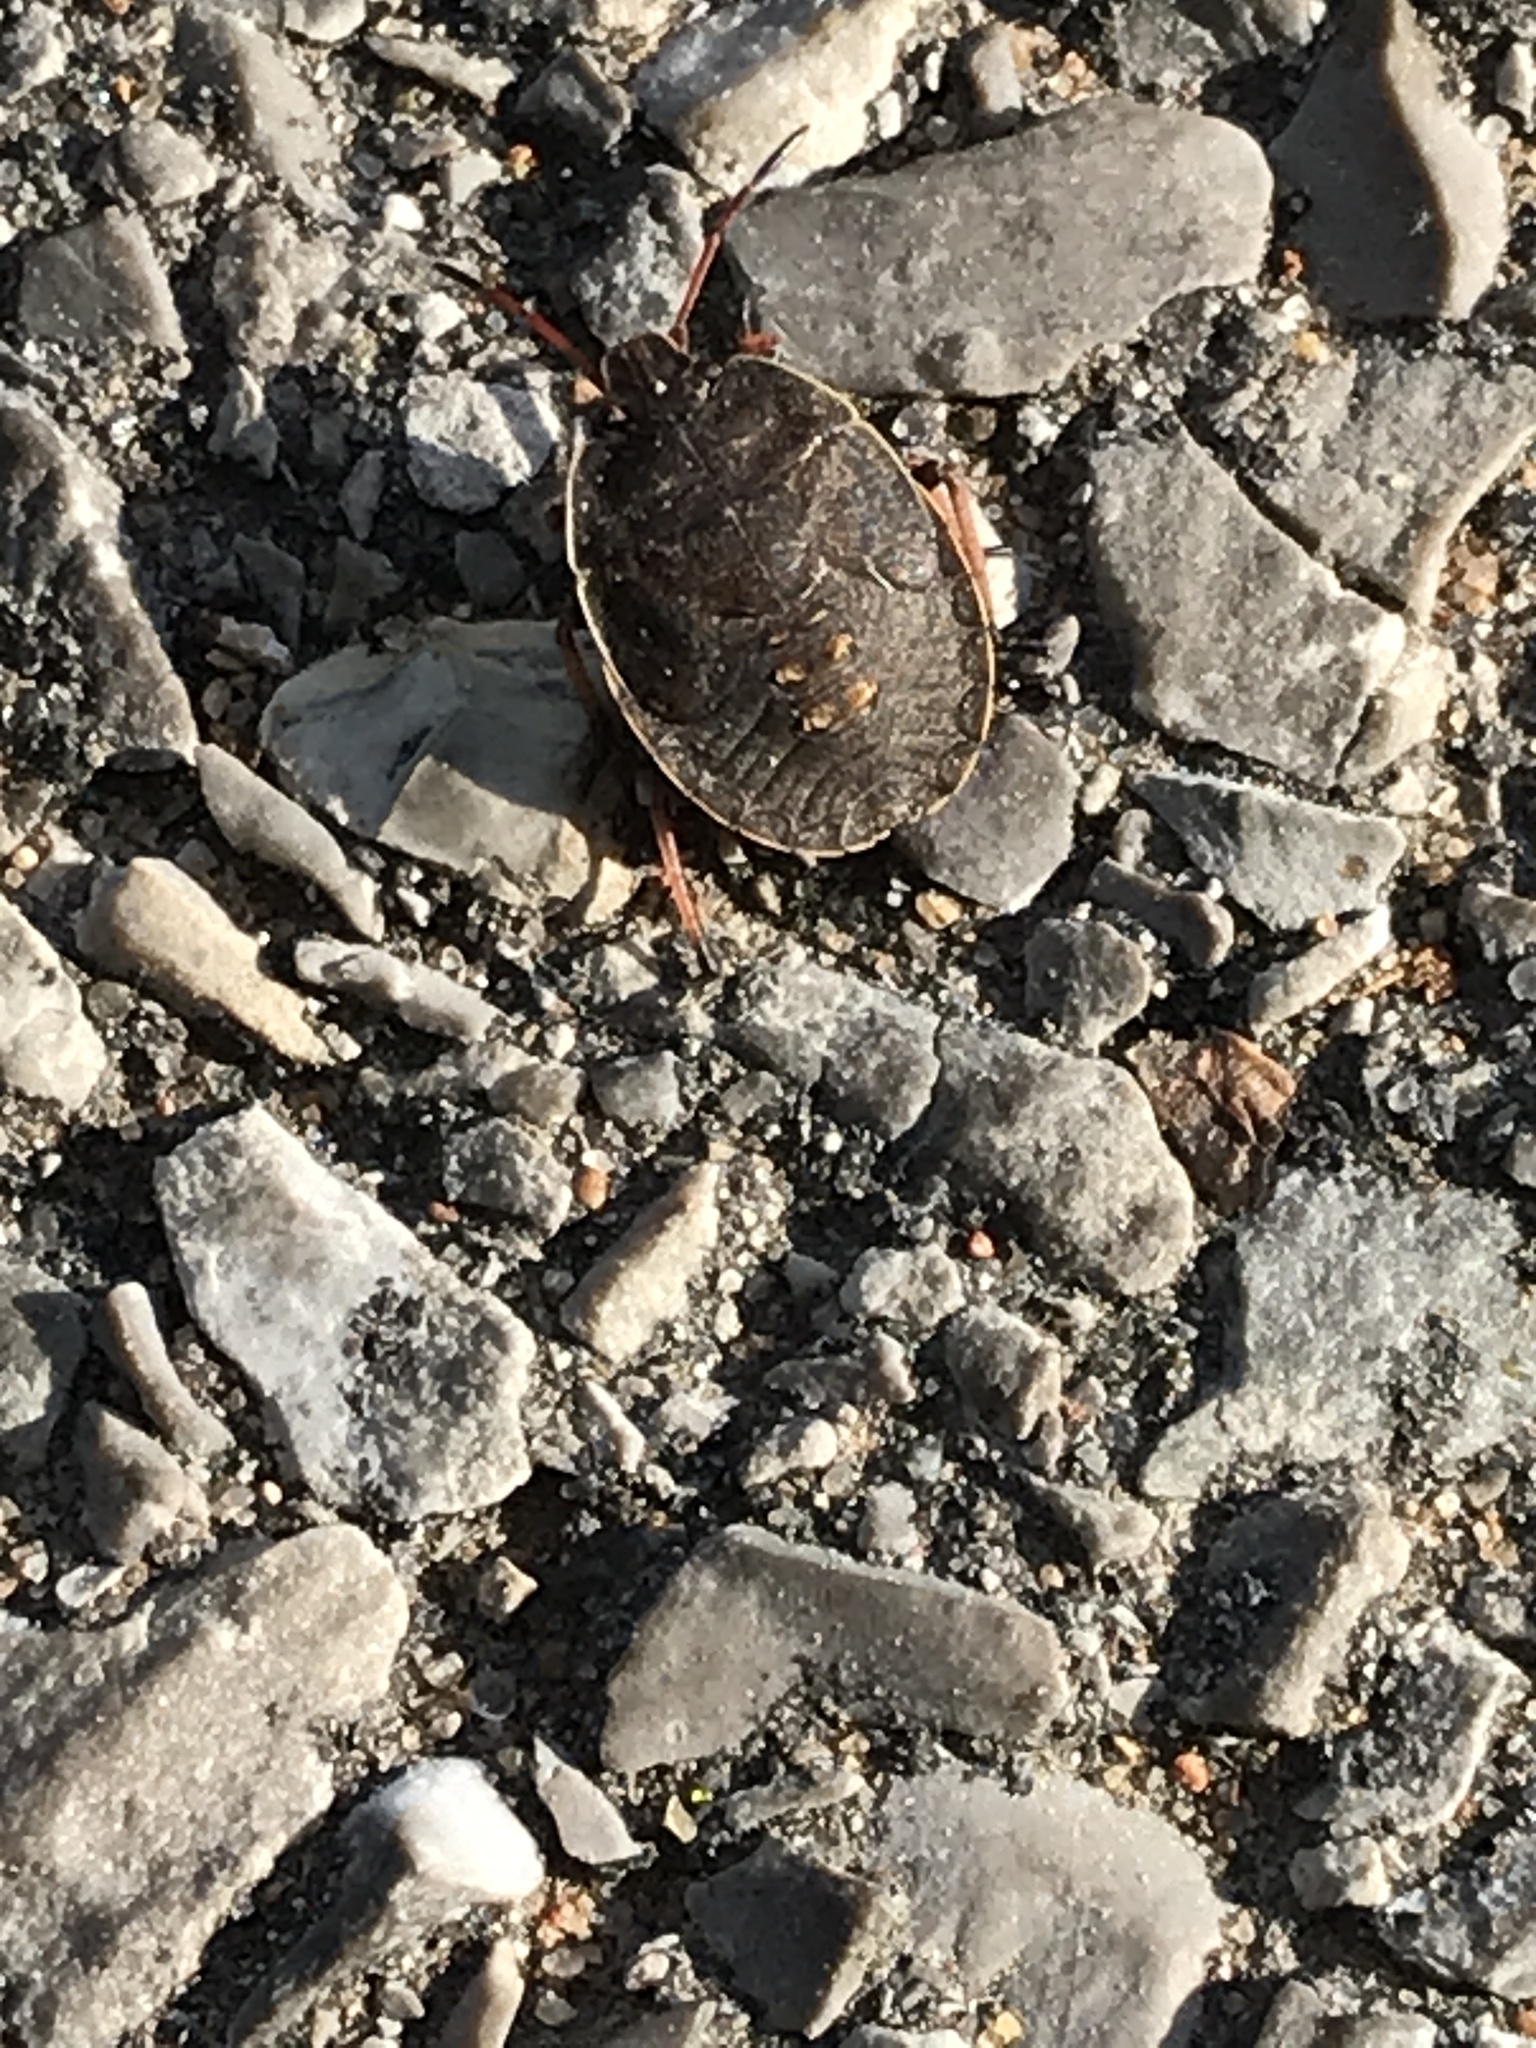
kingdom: Animalia
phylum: Arthropoda
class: Insecta
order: Hemiptera
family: Pentatomidae
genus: Menecles
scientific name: Menecles insertus
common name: Elf shoe stink bug
